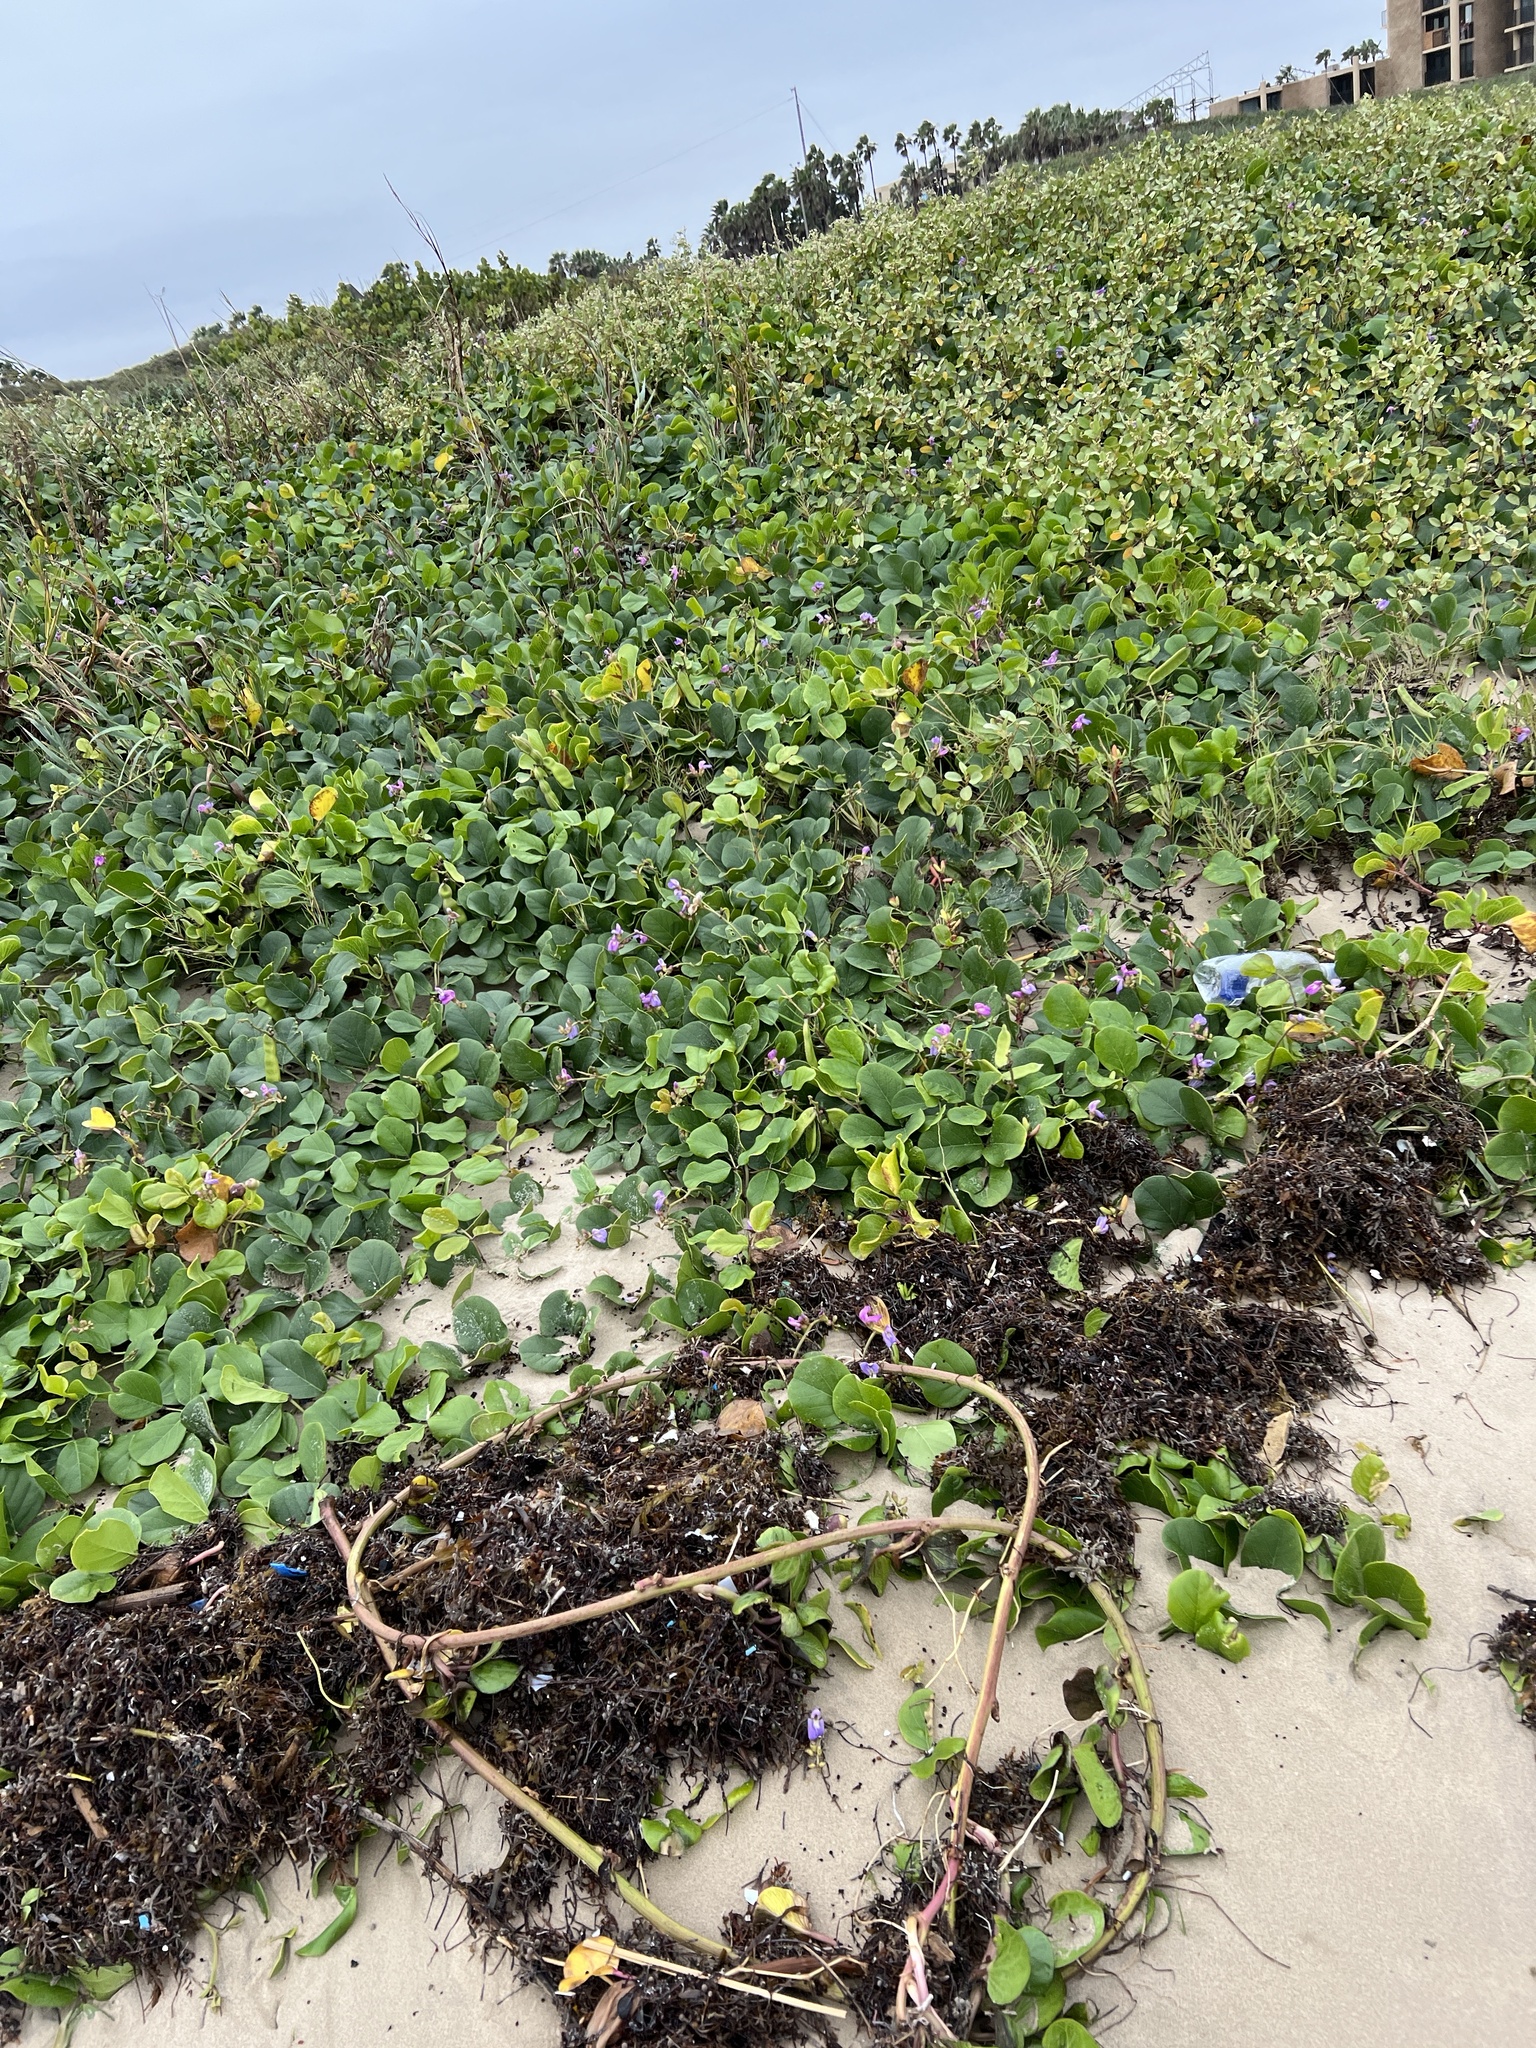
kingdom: Plantae
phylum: Tracheophyta
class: Magnoliopsida
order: Fabales
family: Fabaceae
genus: Canavalia
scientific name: Canavalia rosea
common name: Beach-bean
